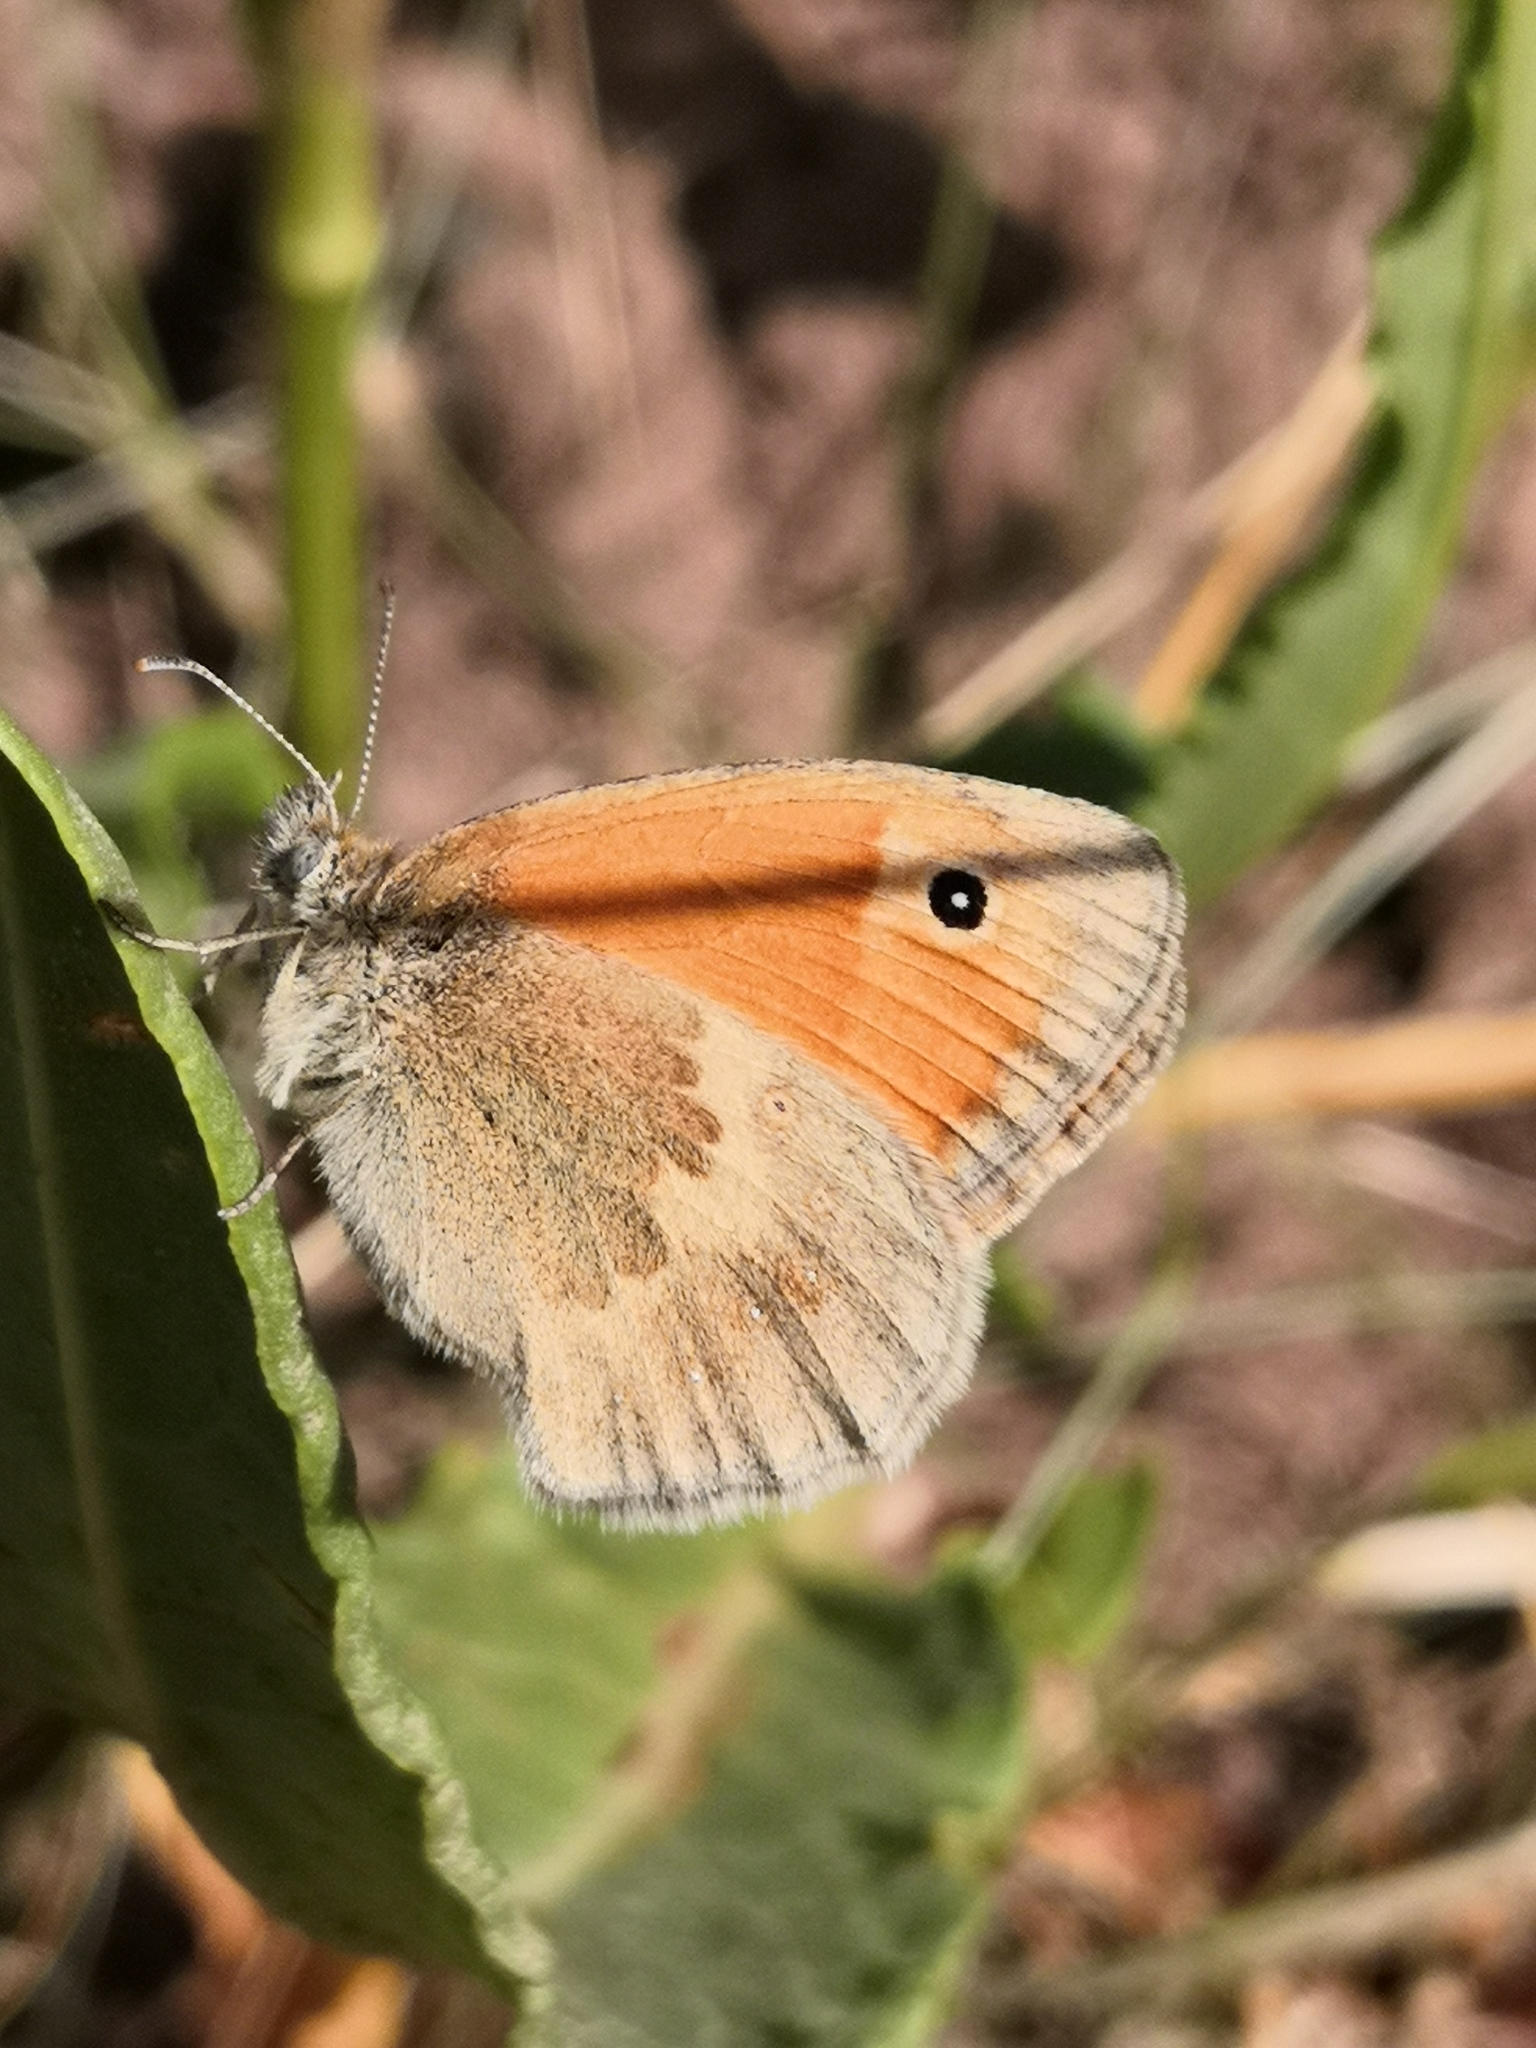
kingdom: Animalia
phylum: Arthropoda
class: Insecta
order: Lepidoptera
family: Nymphalidae
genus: Coenonympha
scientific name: Coenonympha pamphilus
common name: Small heath
